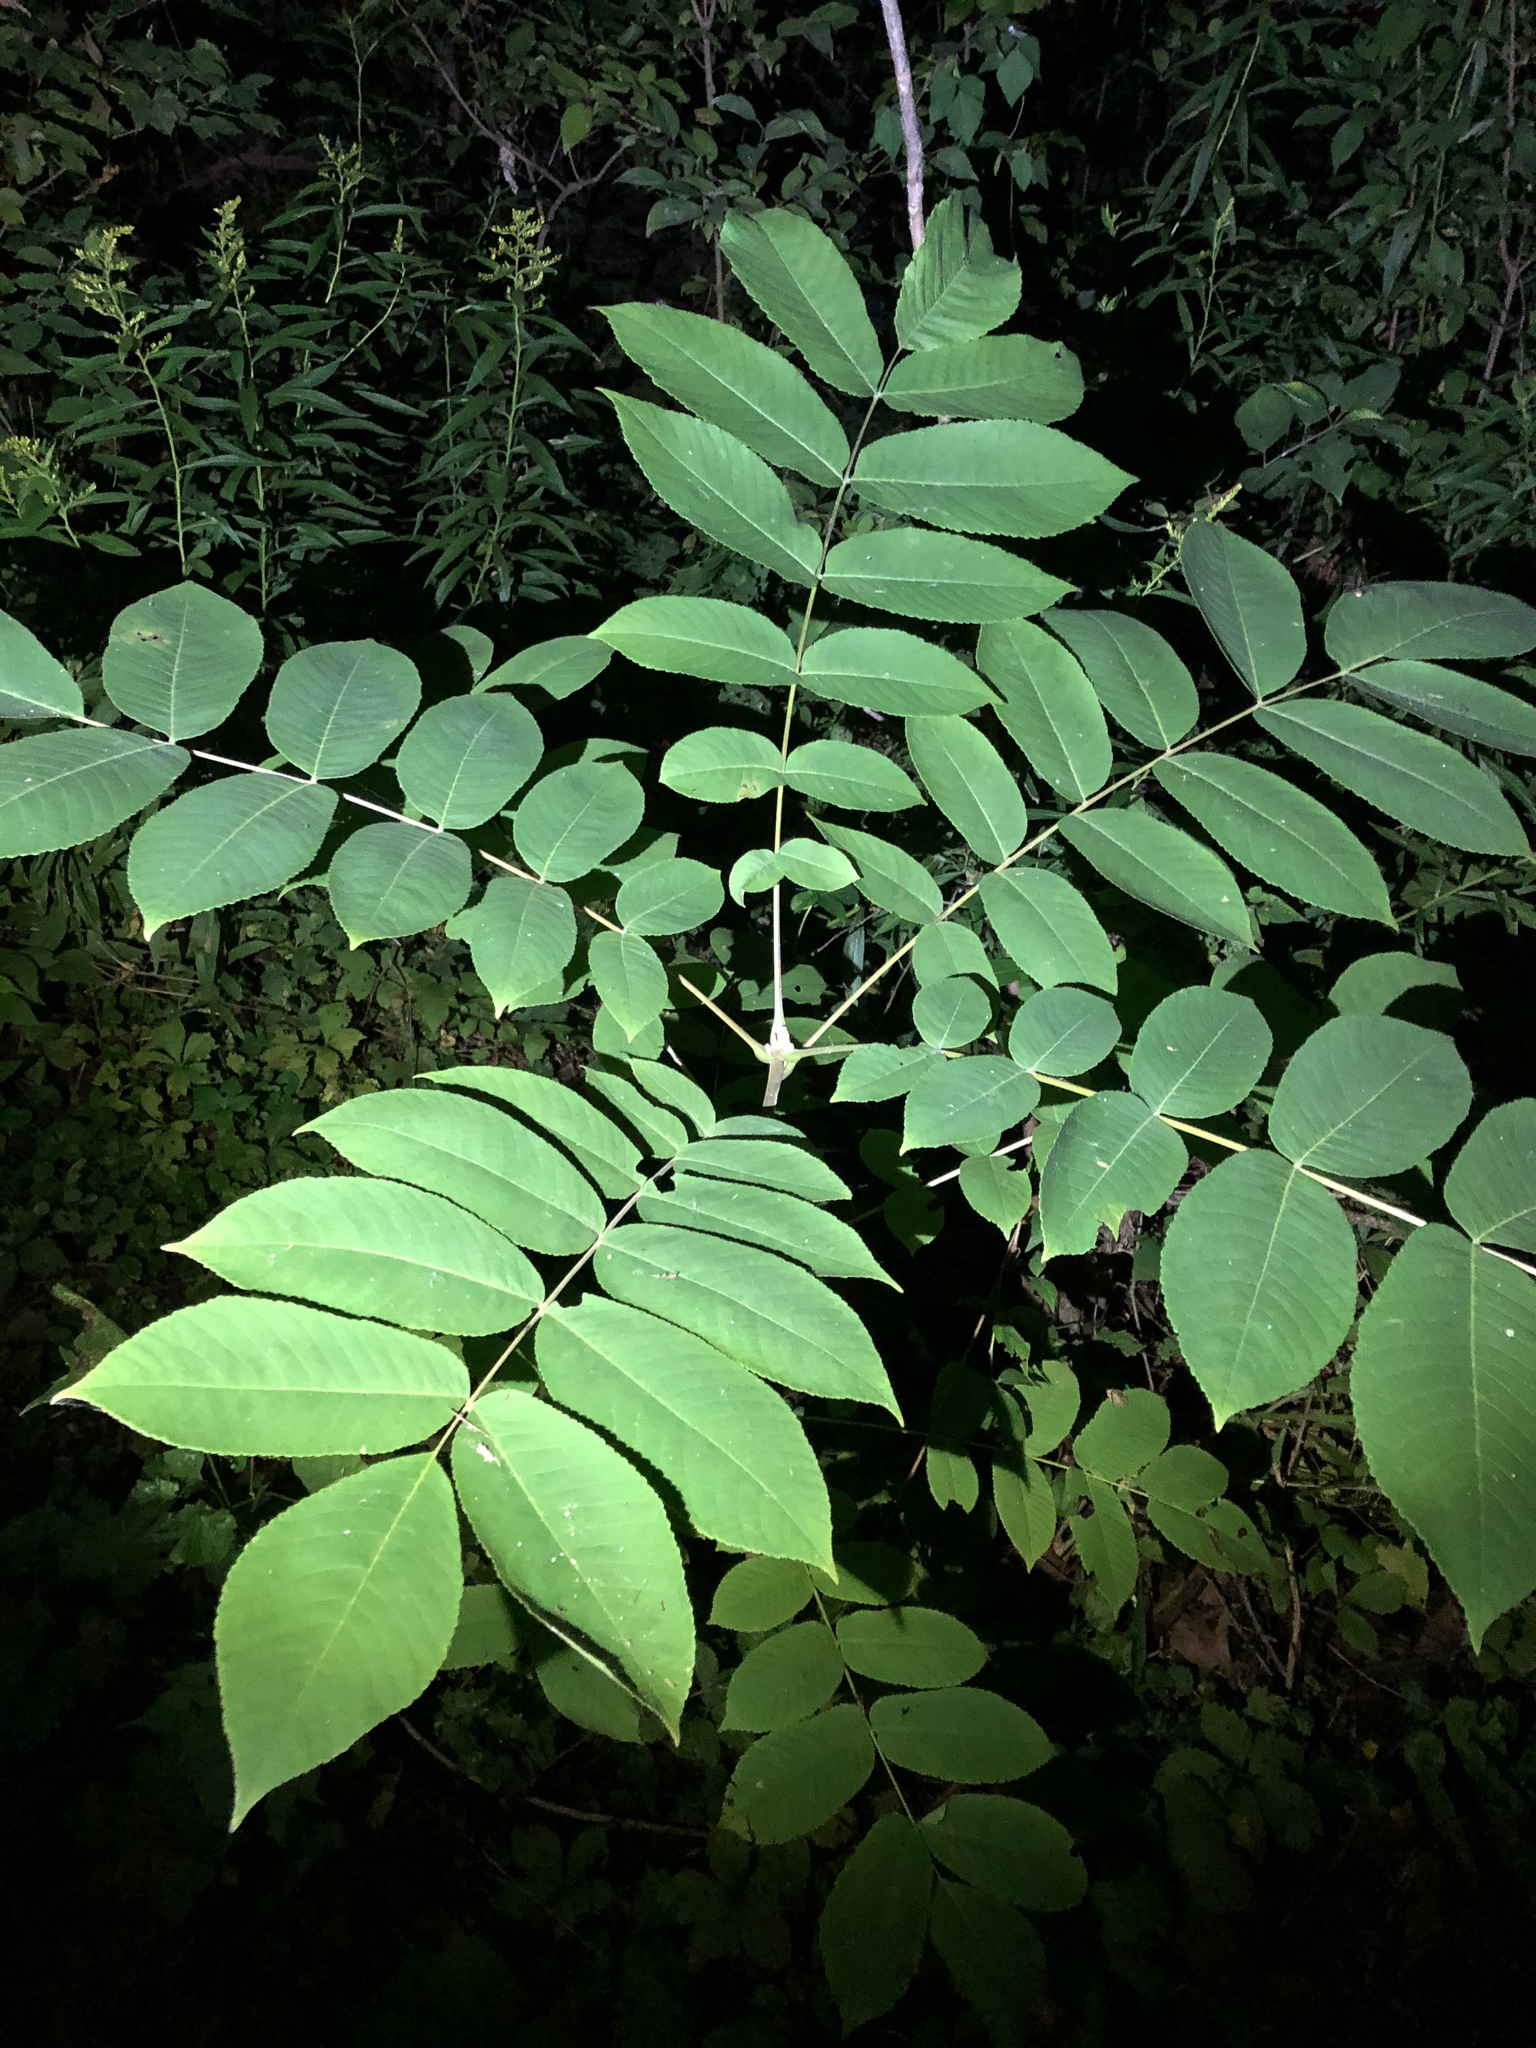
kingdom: Plantae
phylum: Tracheophyta
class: Magnoliopsida
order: Fagales
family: Juglandaceae
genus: Juglans
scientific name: Juglans cinerea
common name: Butternut
